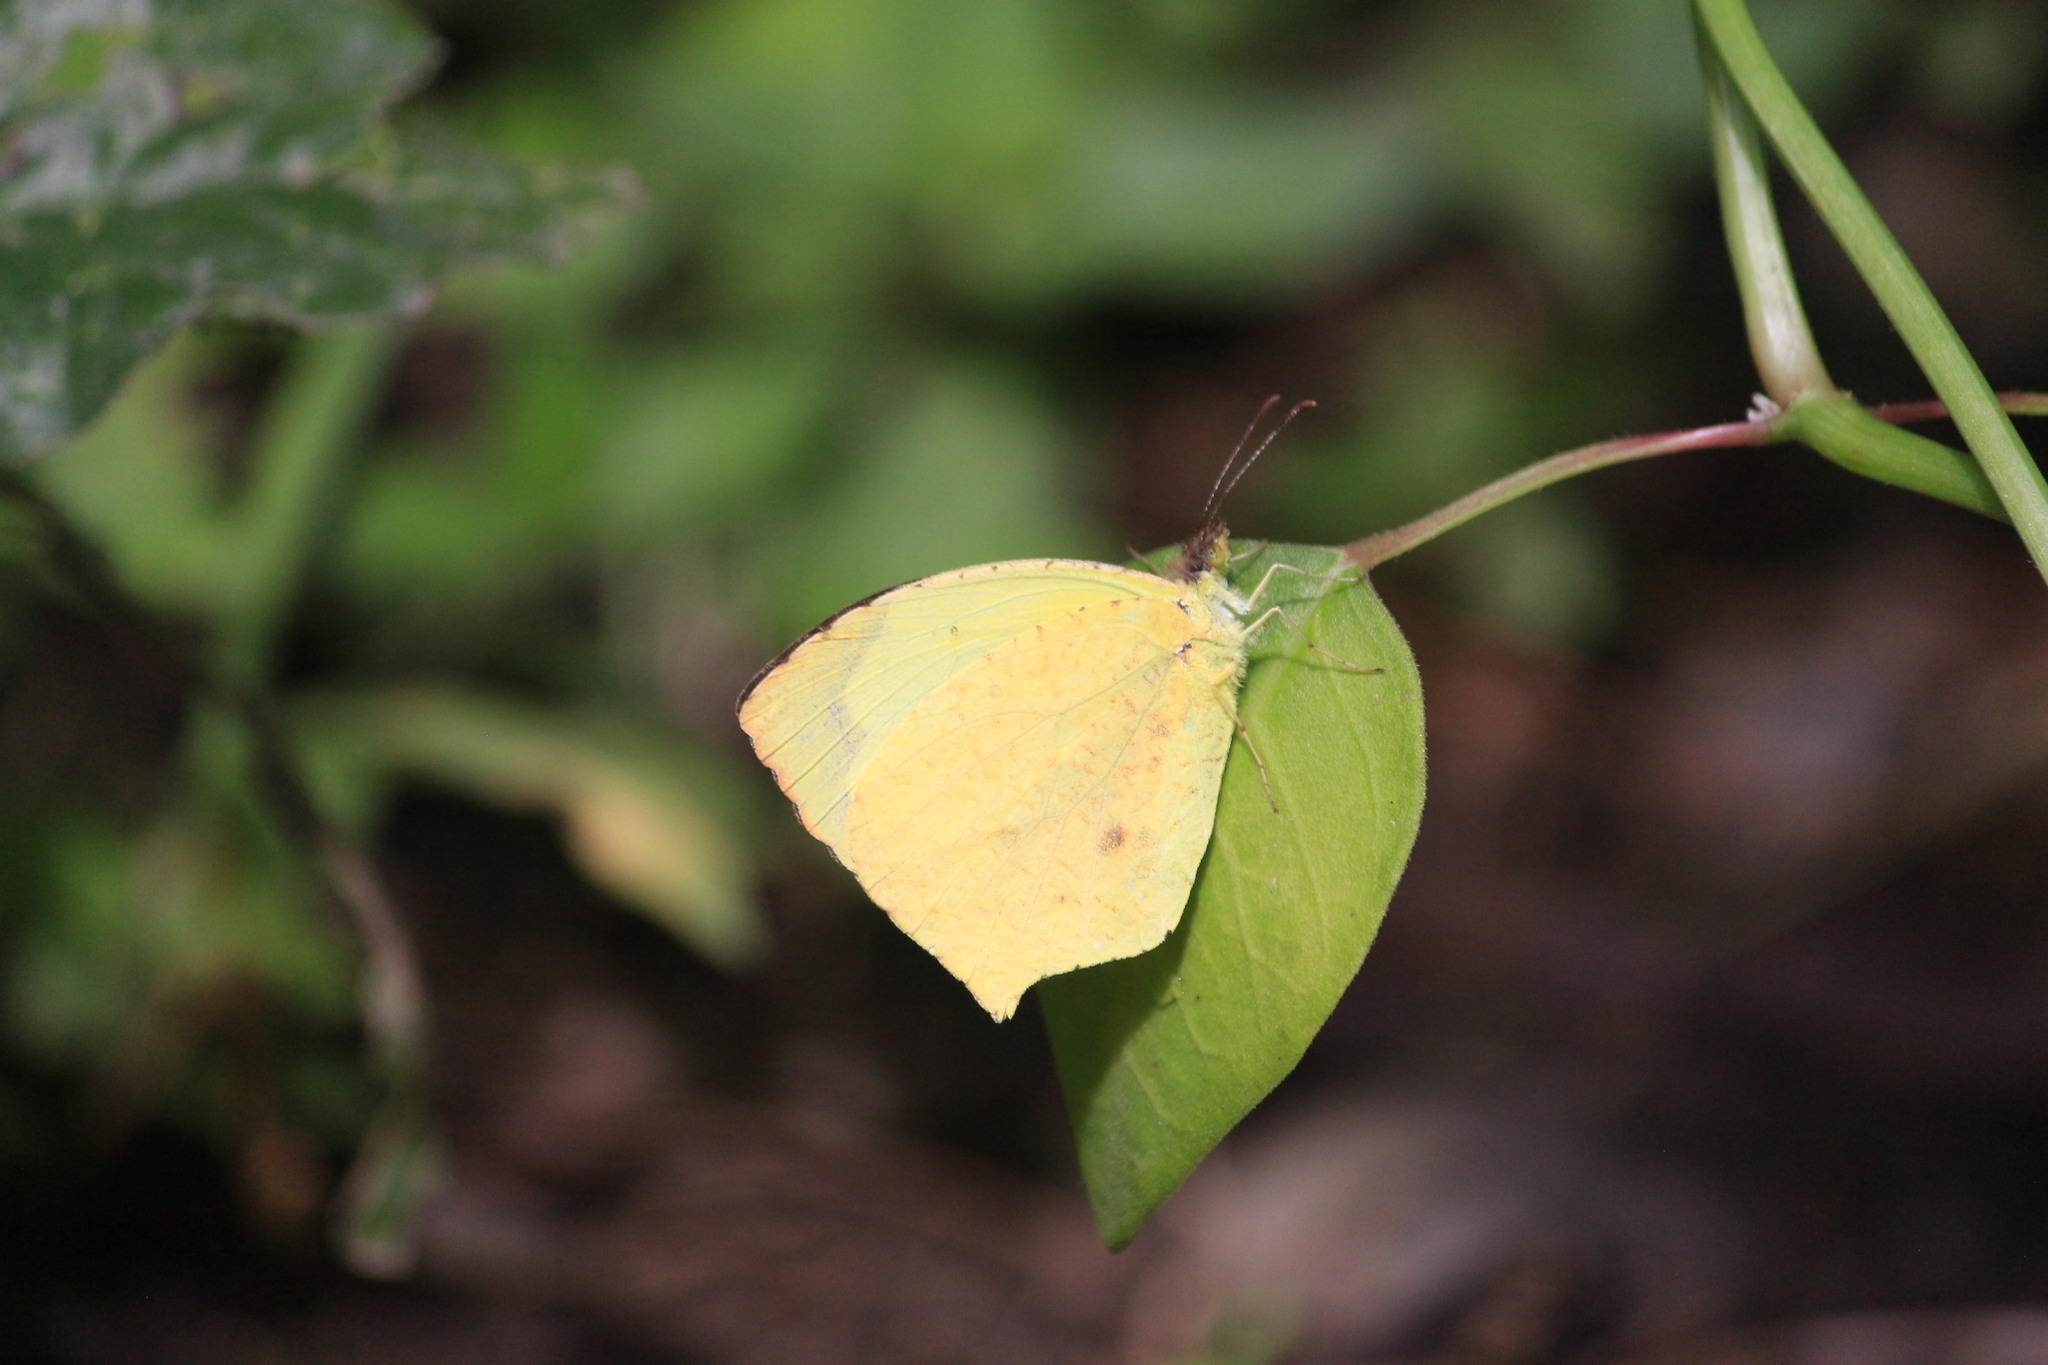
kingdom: Animalia
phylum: Arthropoda
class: Insecta
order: Lepidoptera
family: Pieridae
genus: Abaeis
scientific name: Abaeis salome
